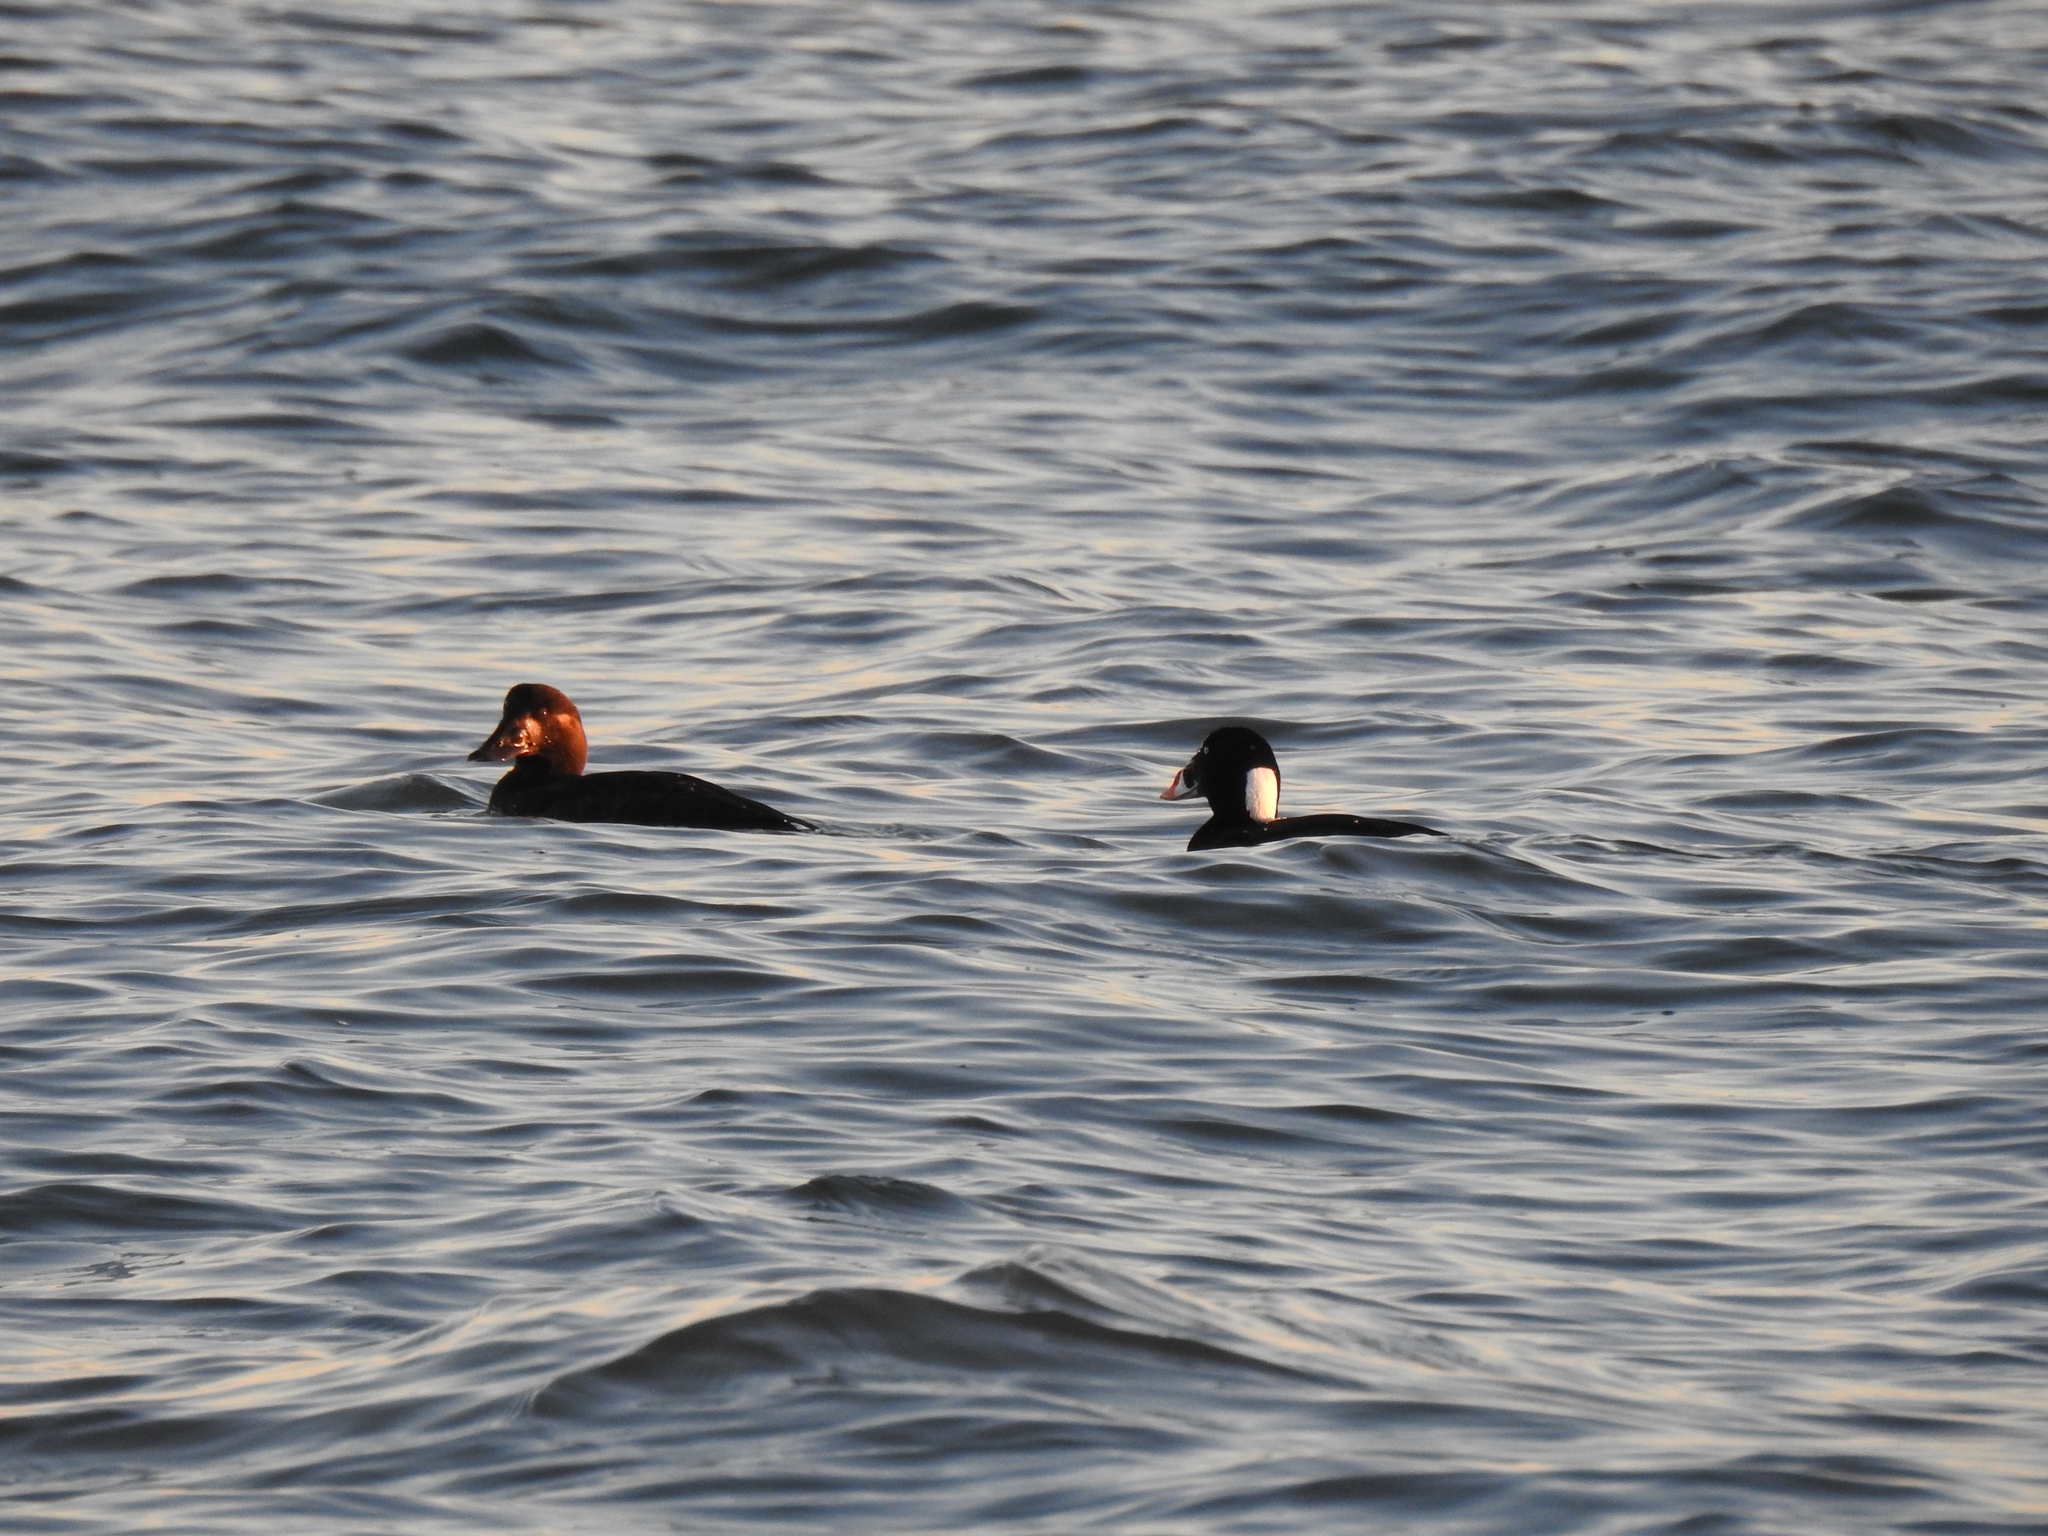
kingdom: Animalia
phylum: Chordata
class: Aves
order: Anseriformes
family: Anatidae
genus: Melanitta
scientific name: Melanitta perspicillata
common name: Surf scoter
